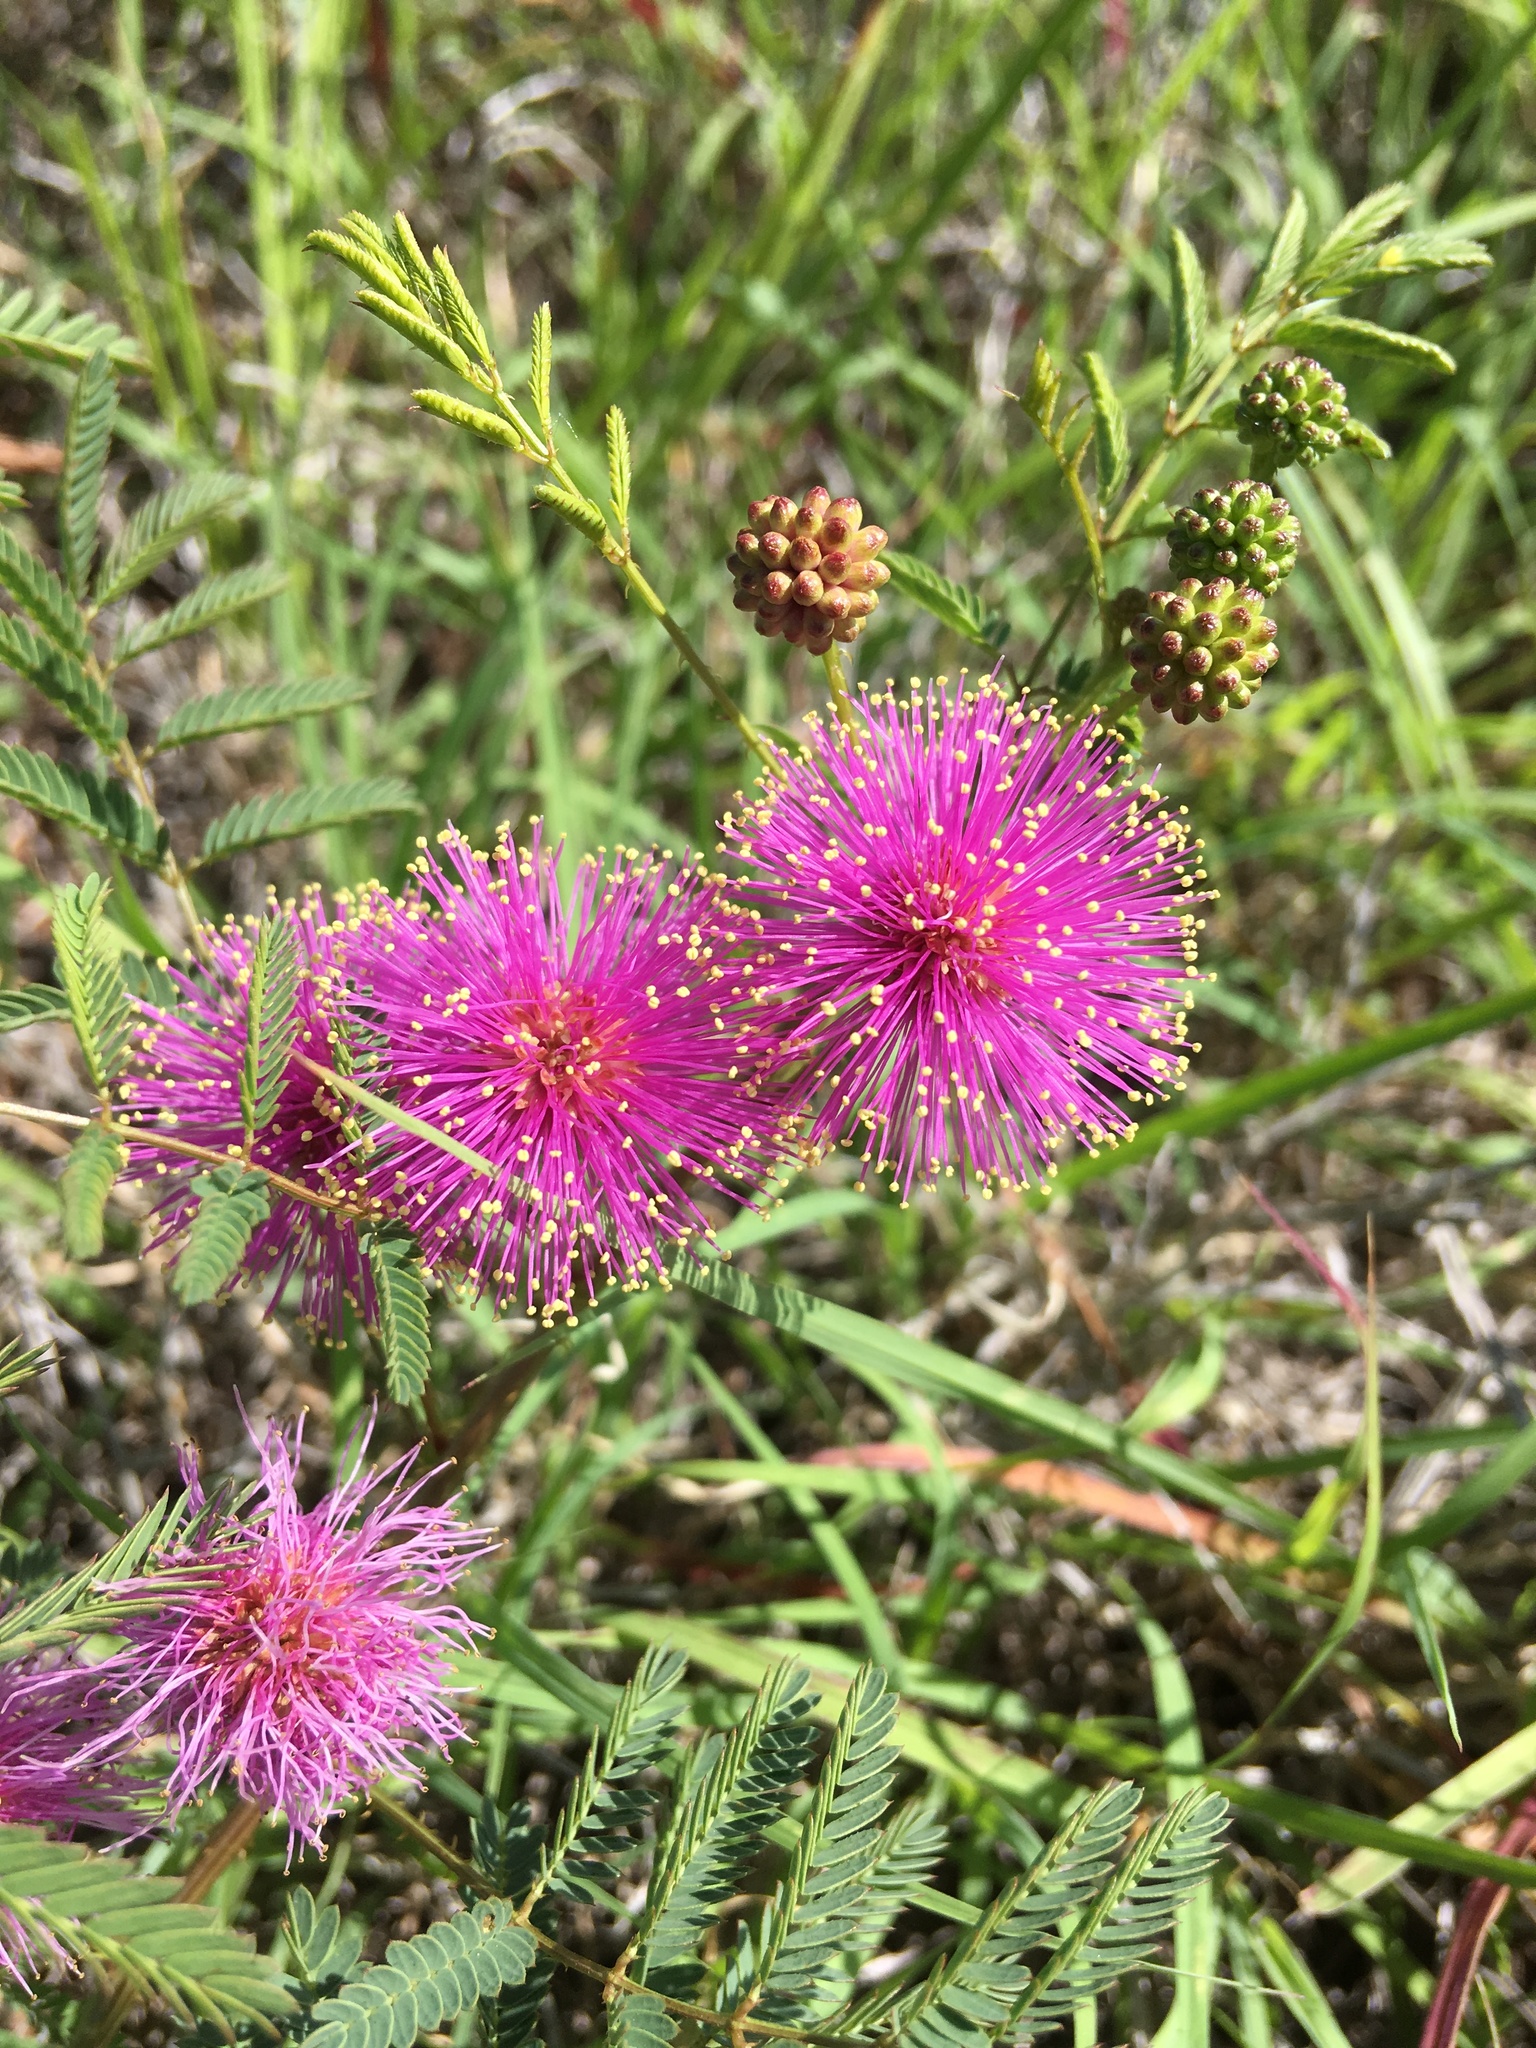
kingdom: Plantae
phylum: Tracheophyta
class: Magnoliopsida
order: Fabales
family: Fabaceae
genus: Mimosa
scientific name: Mimosa quadrivalvis
